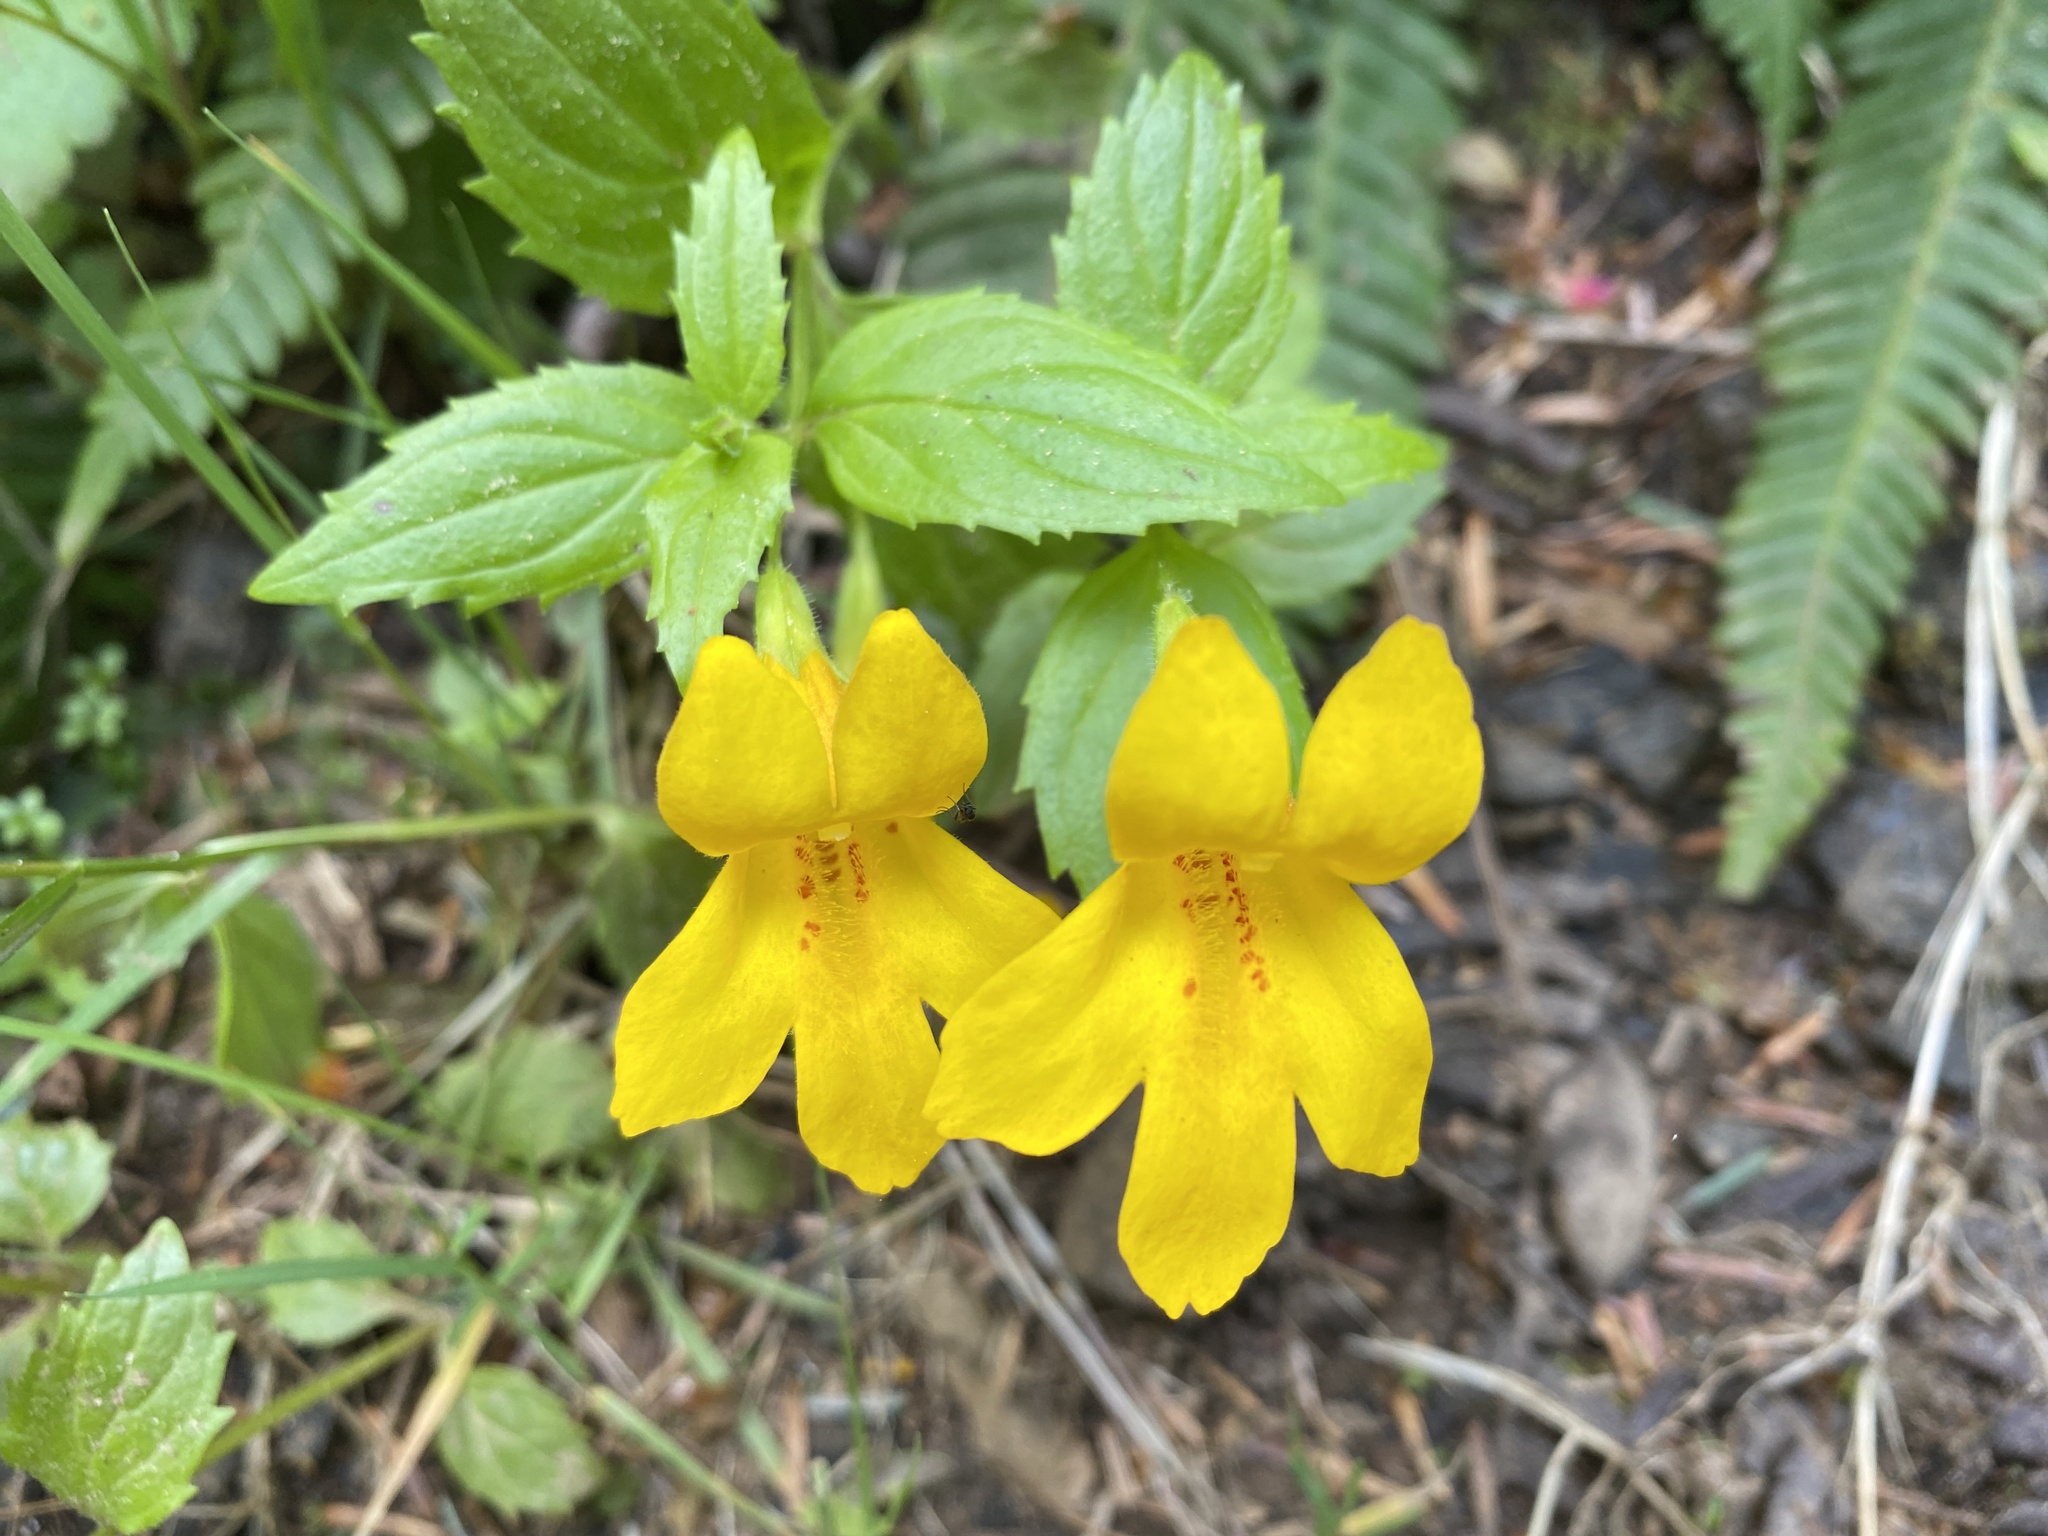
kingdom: Plantae
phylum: Tracheophyta
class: Magnoliopsida
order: Lamiales
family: Phrymaceae
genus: Erythranthe
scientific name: Erythranthe dentata
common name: Coastal monkeyflower
